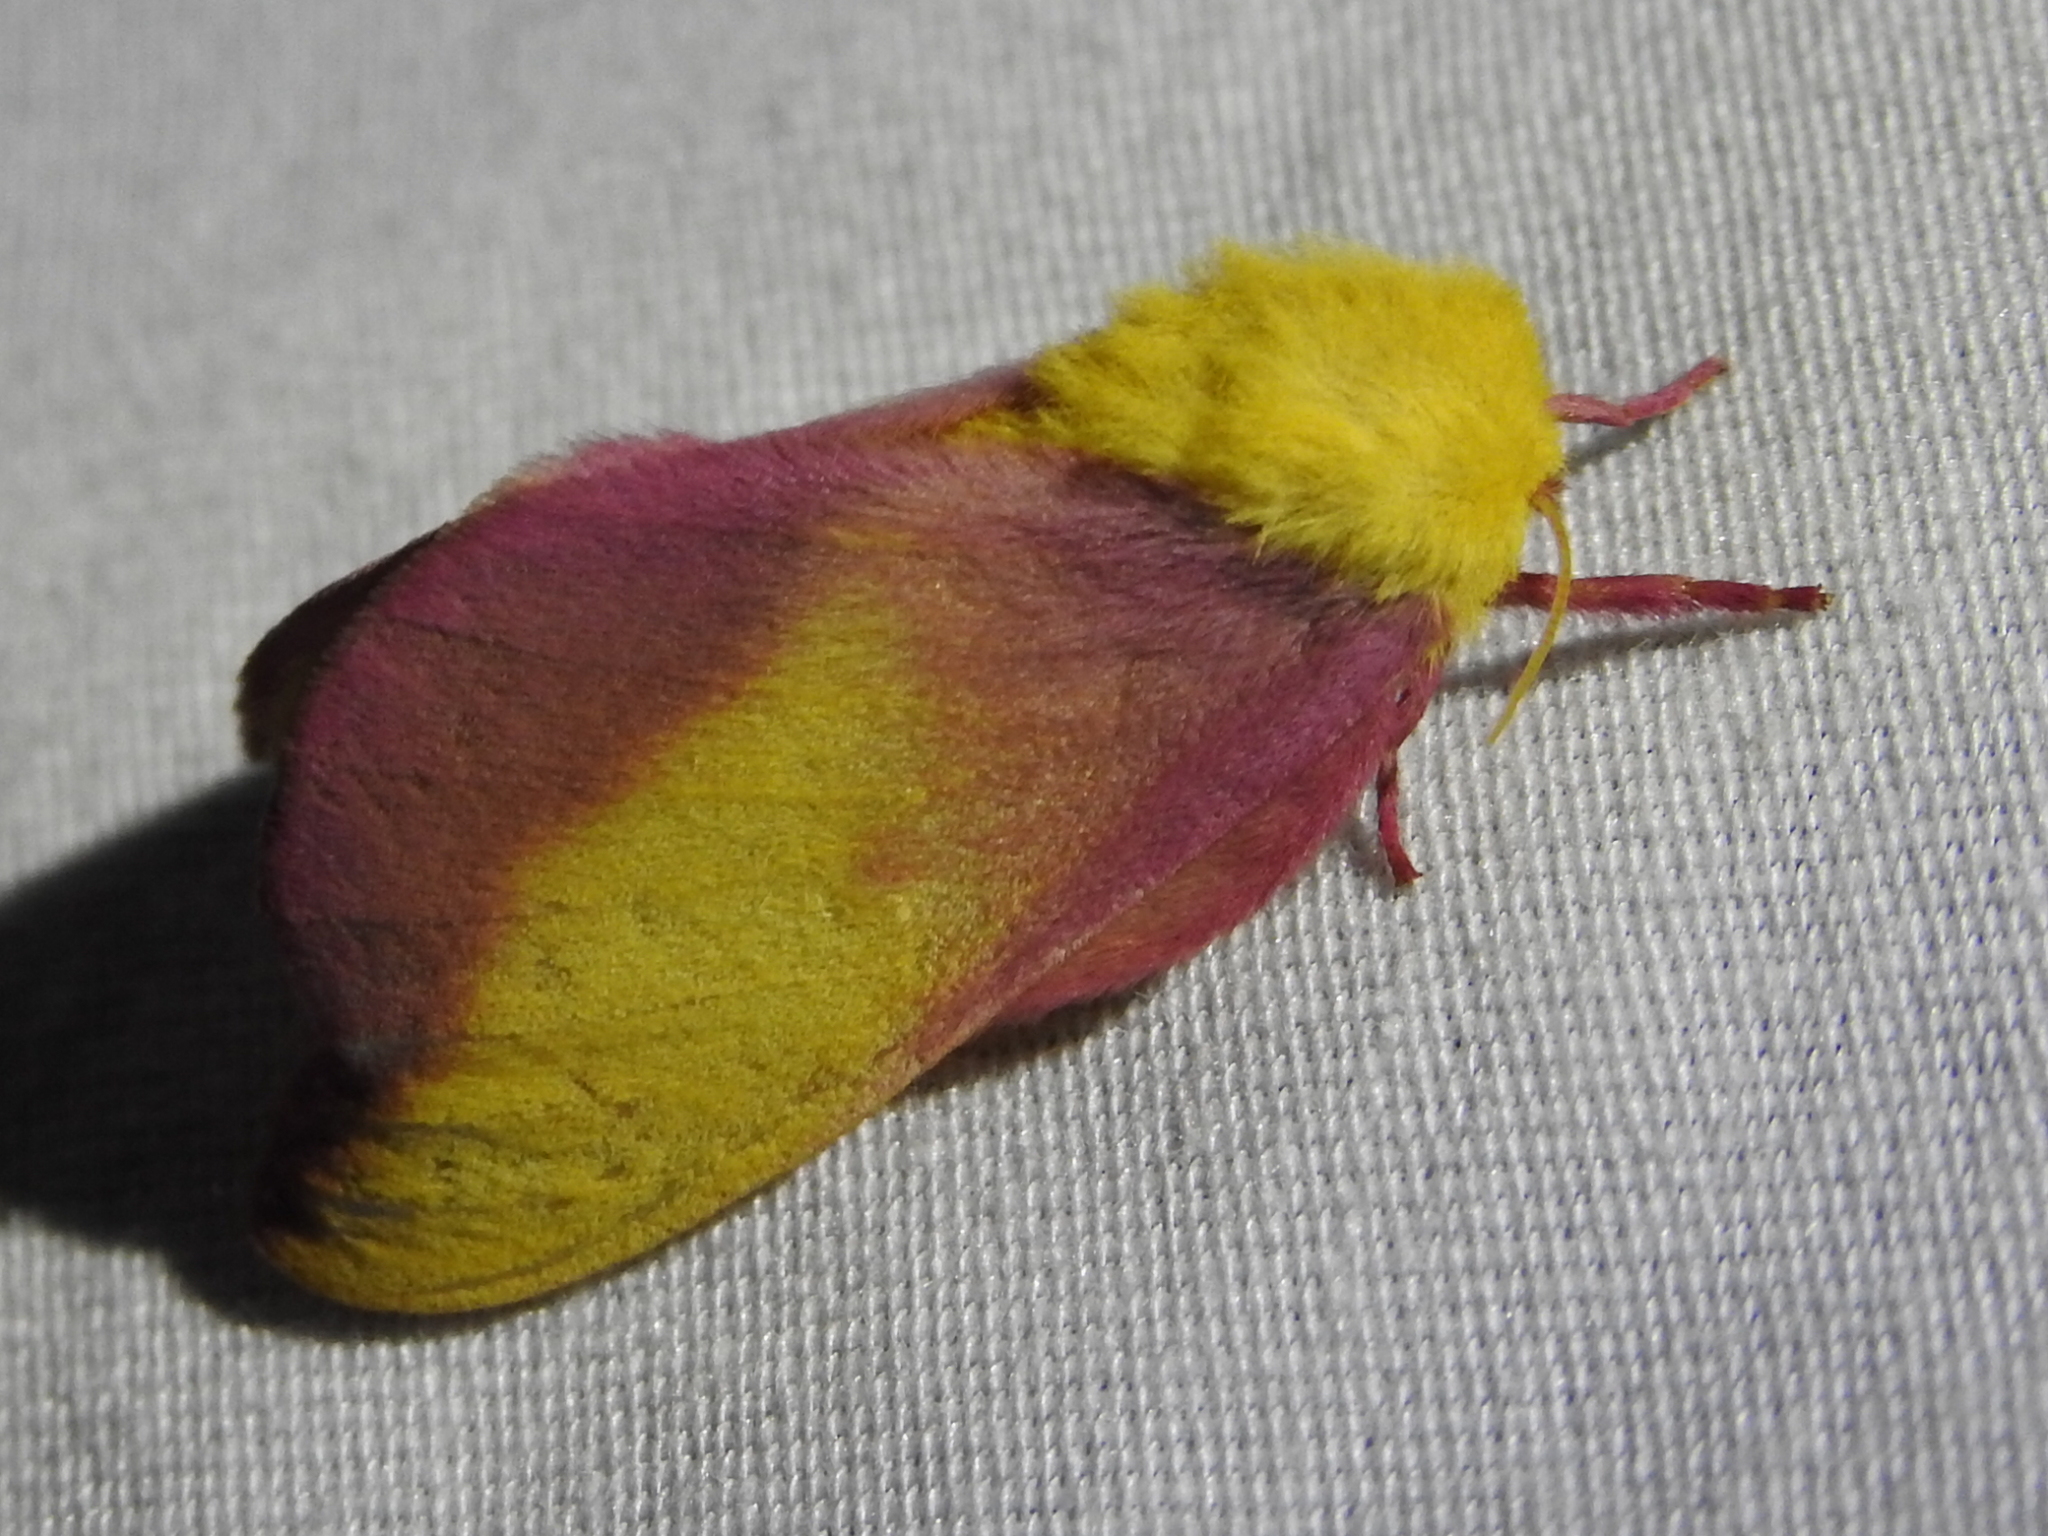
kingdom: Animalia
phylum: Arthropoda
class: Insecta
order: Lepidoptera
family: Saturniidae
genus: Dryocampa
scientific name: Dryocampa rubicunda
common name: Rosy maple moth
